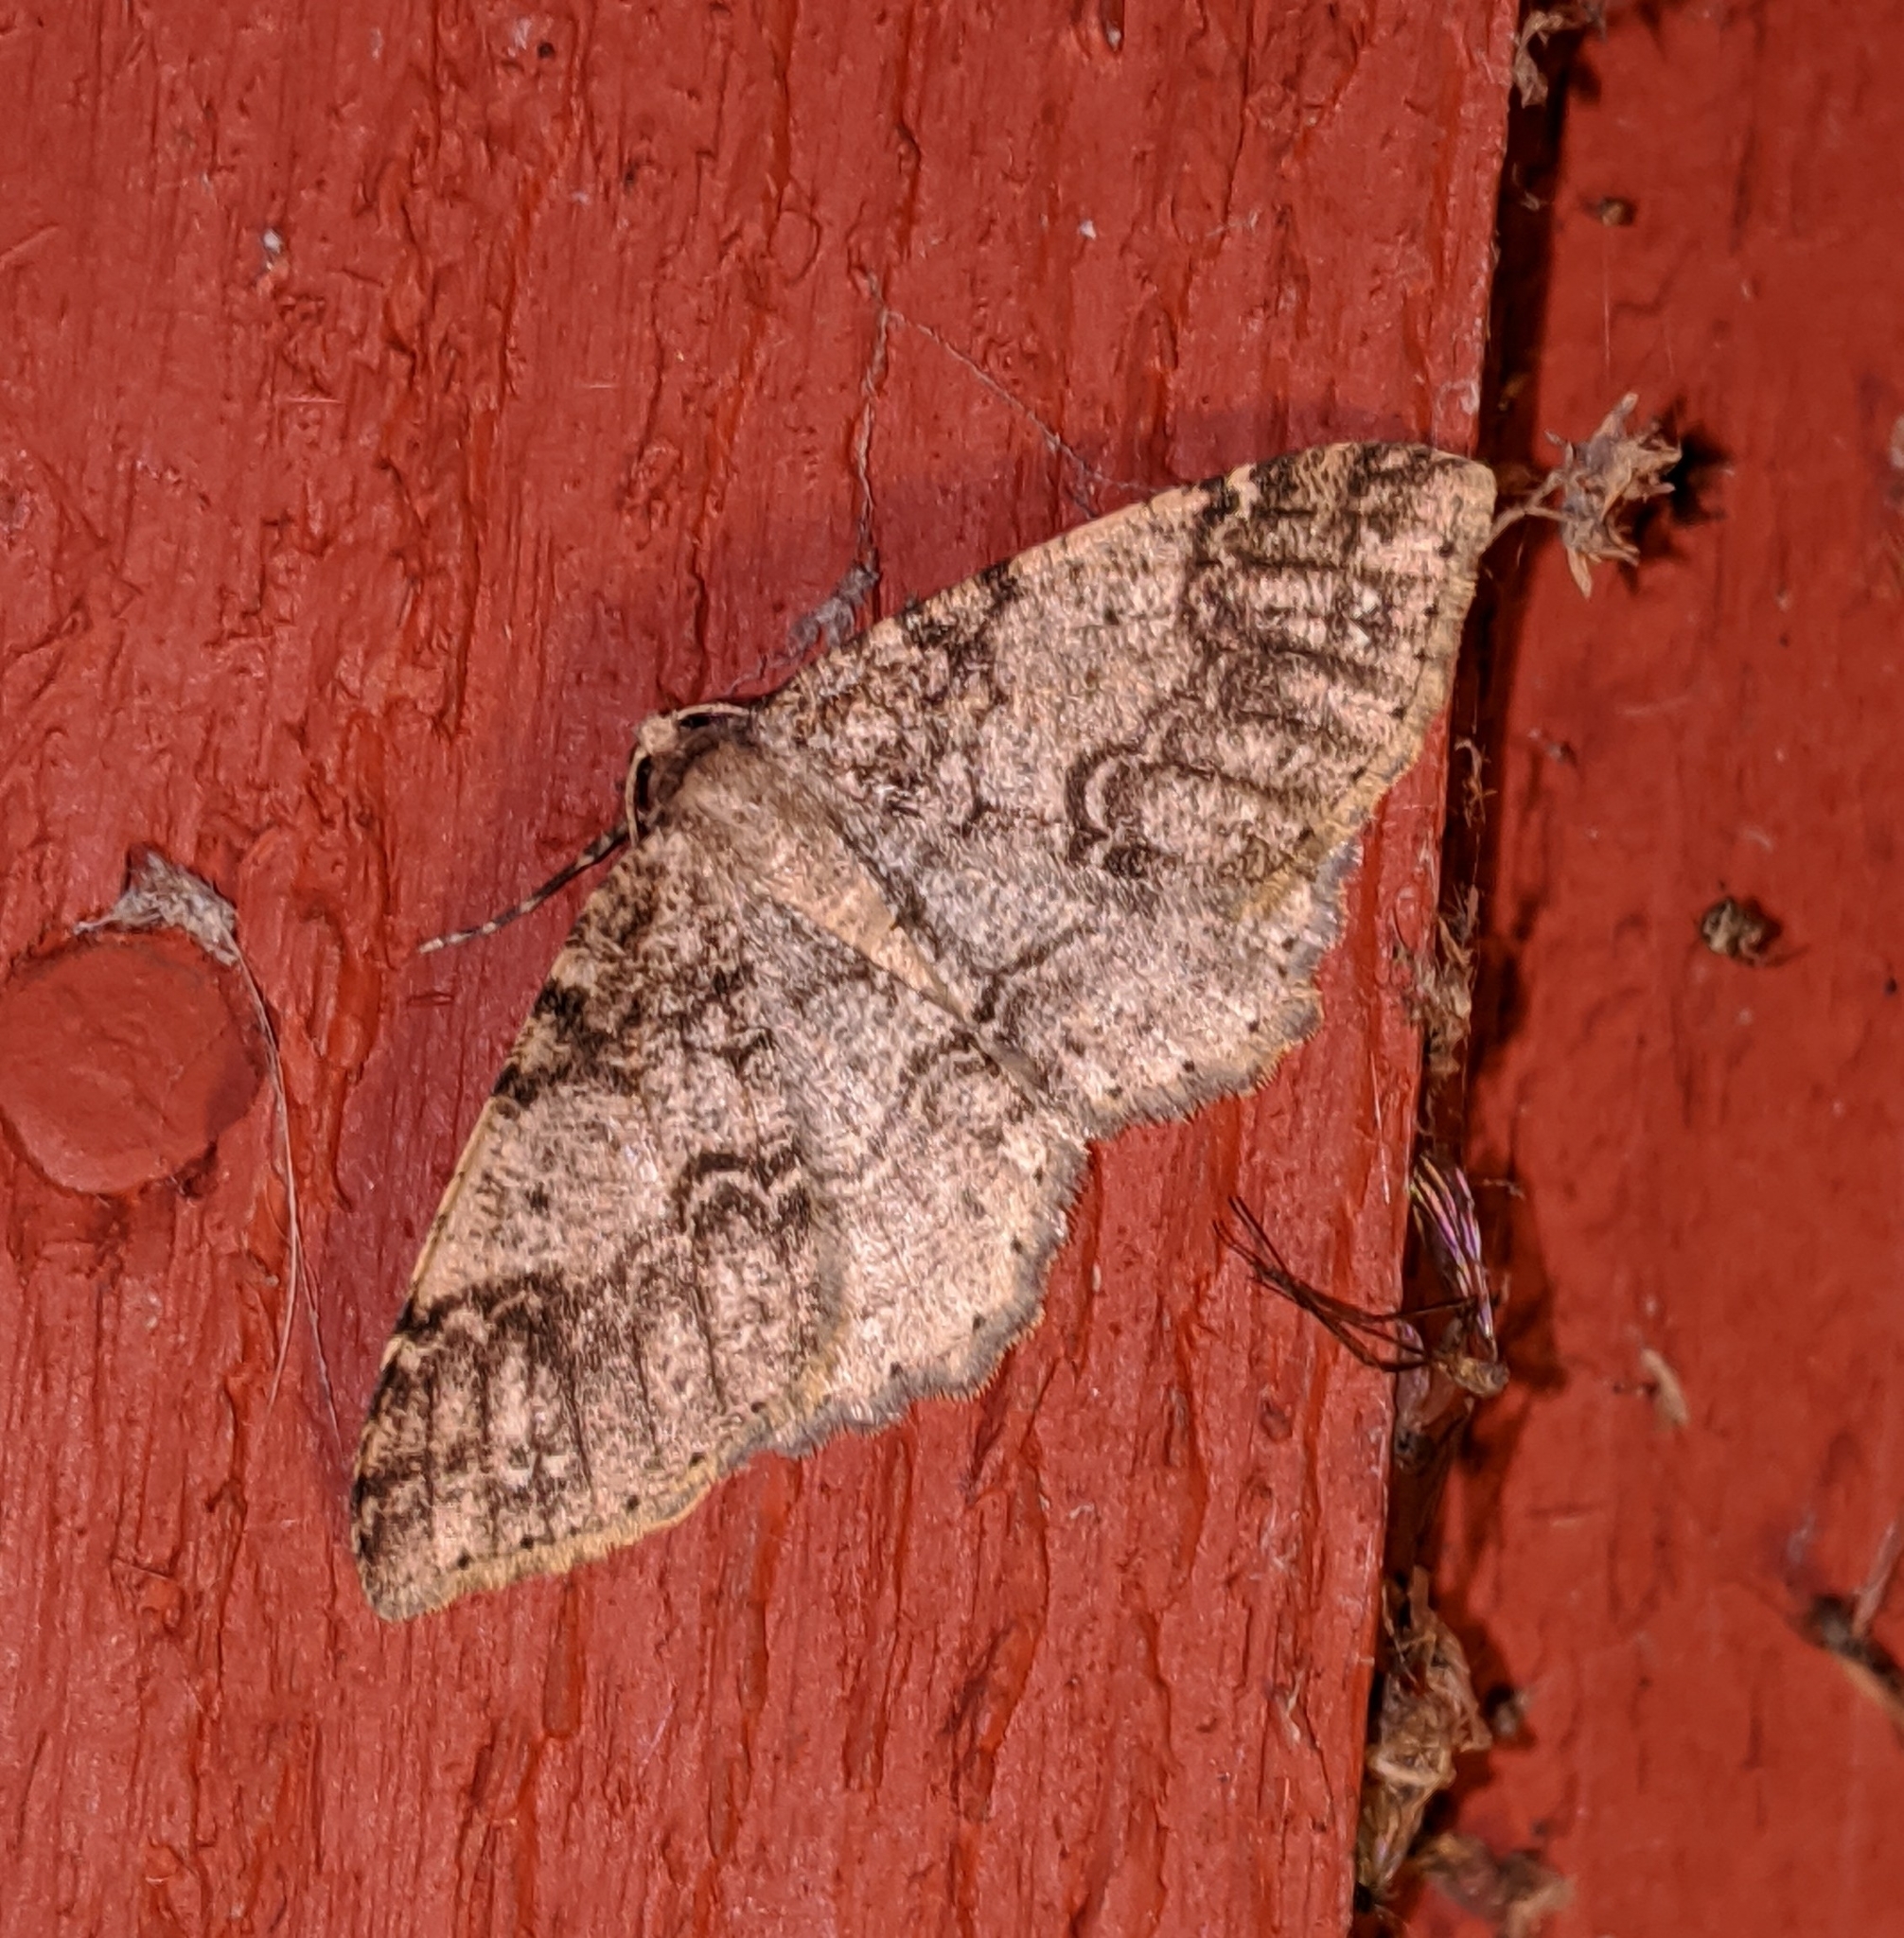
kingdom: Animalia
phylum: Arthropoda
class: Insecta
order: Lepidoptera
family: Geometridae
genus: Melanolophia
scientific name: Melanolophia imitata
